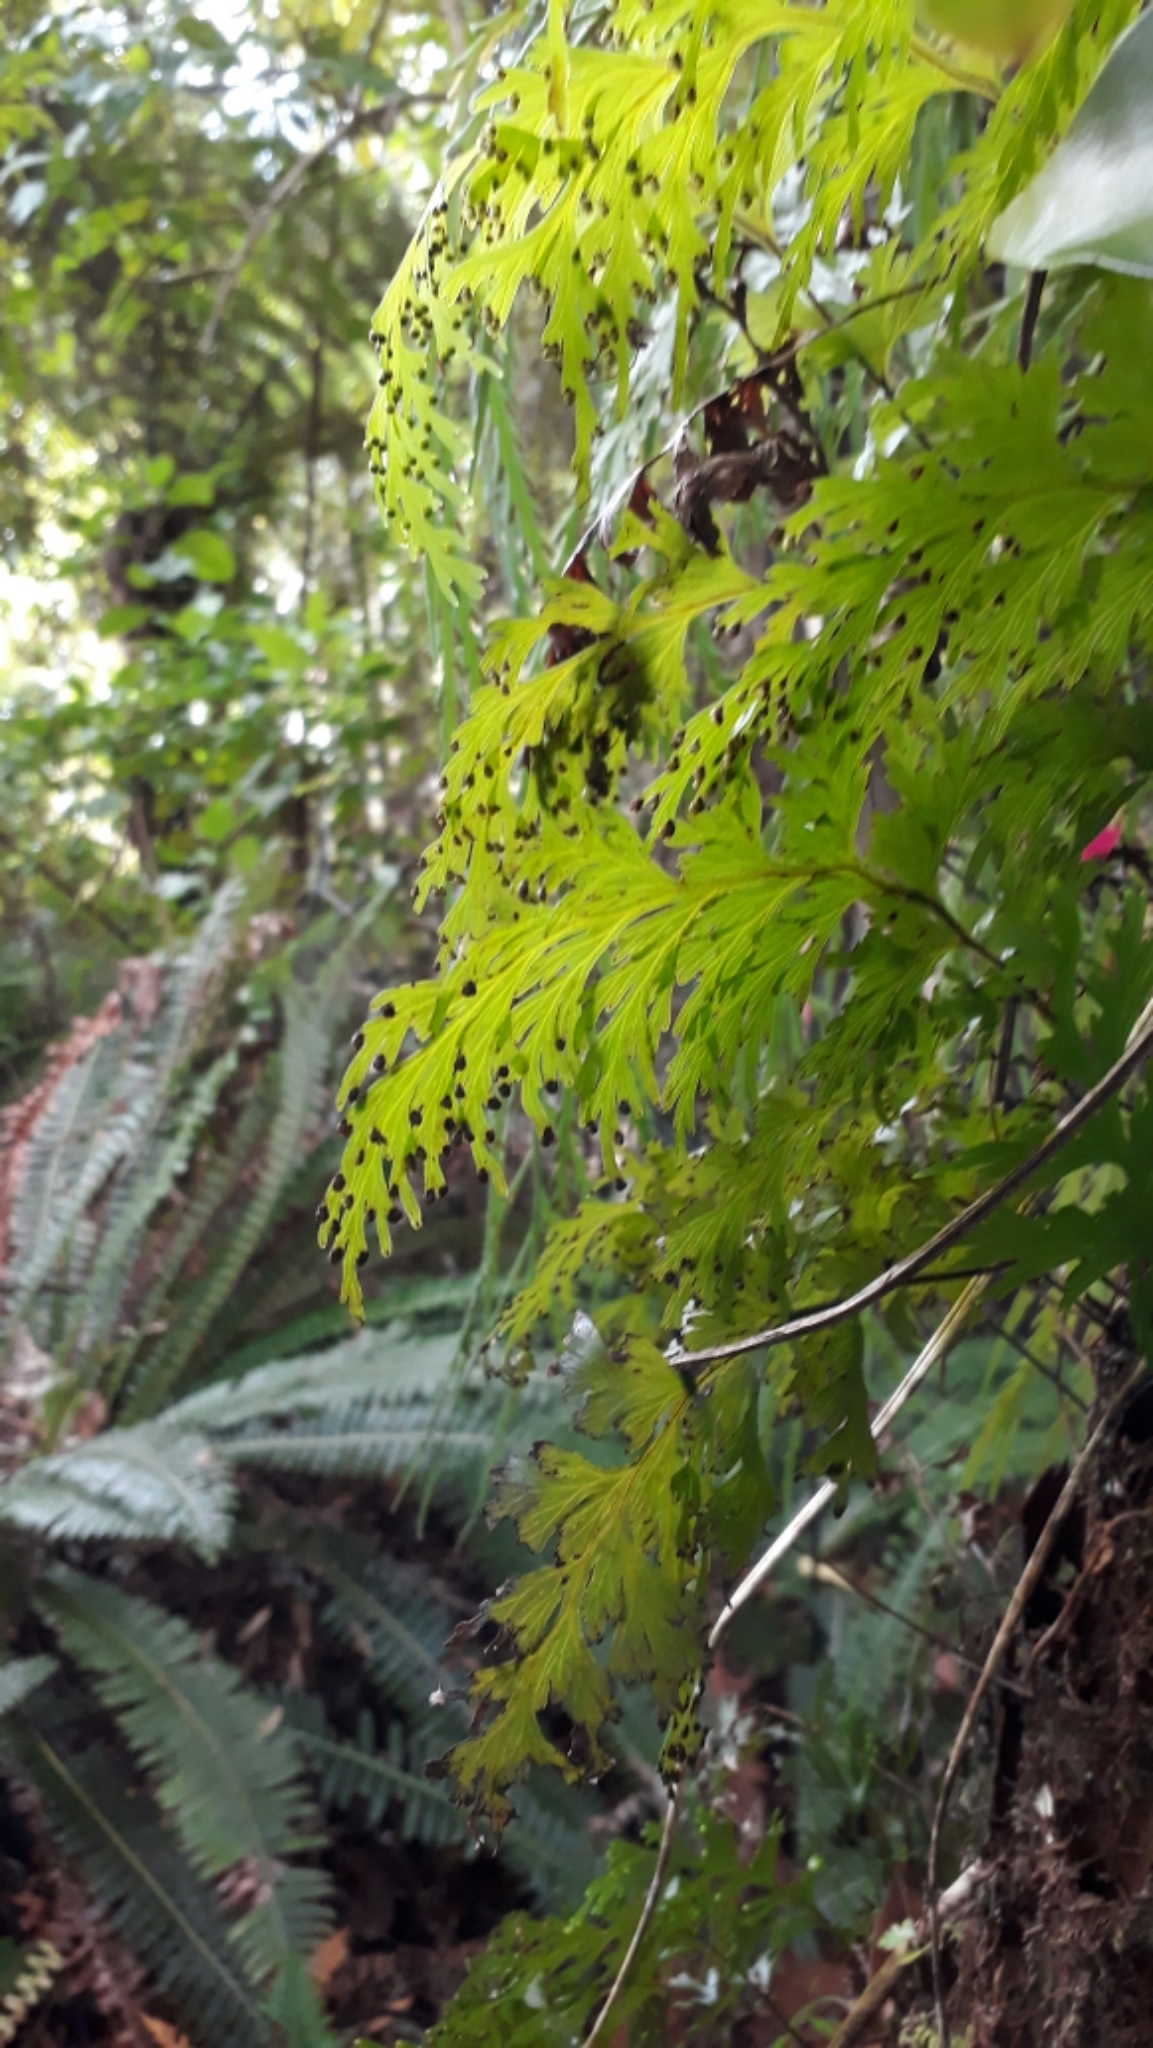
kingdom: Plantae
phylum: Tracheophyta
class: Polypodiopsida
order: Hymenophyllales
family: Hymenophyllaceae
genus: Hymenophyllum
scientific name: Hymenophyllum dilatatum
